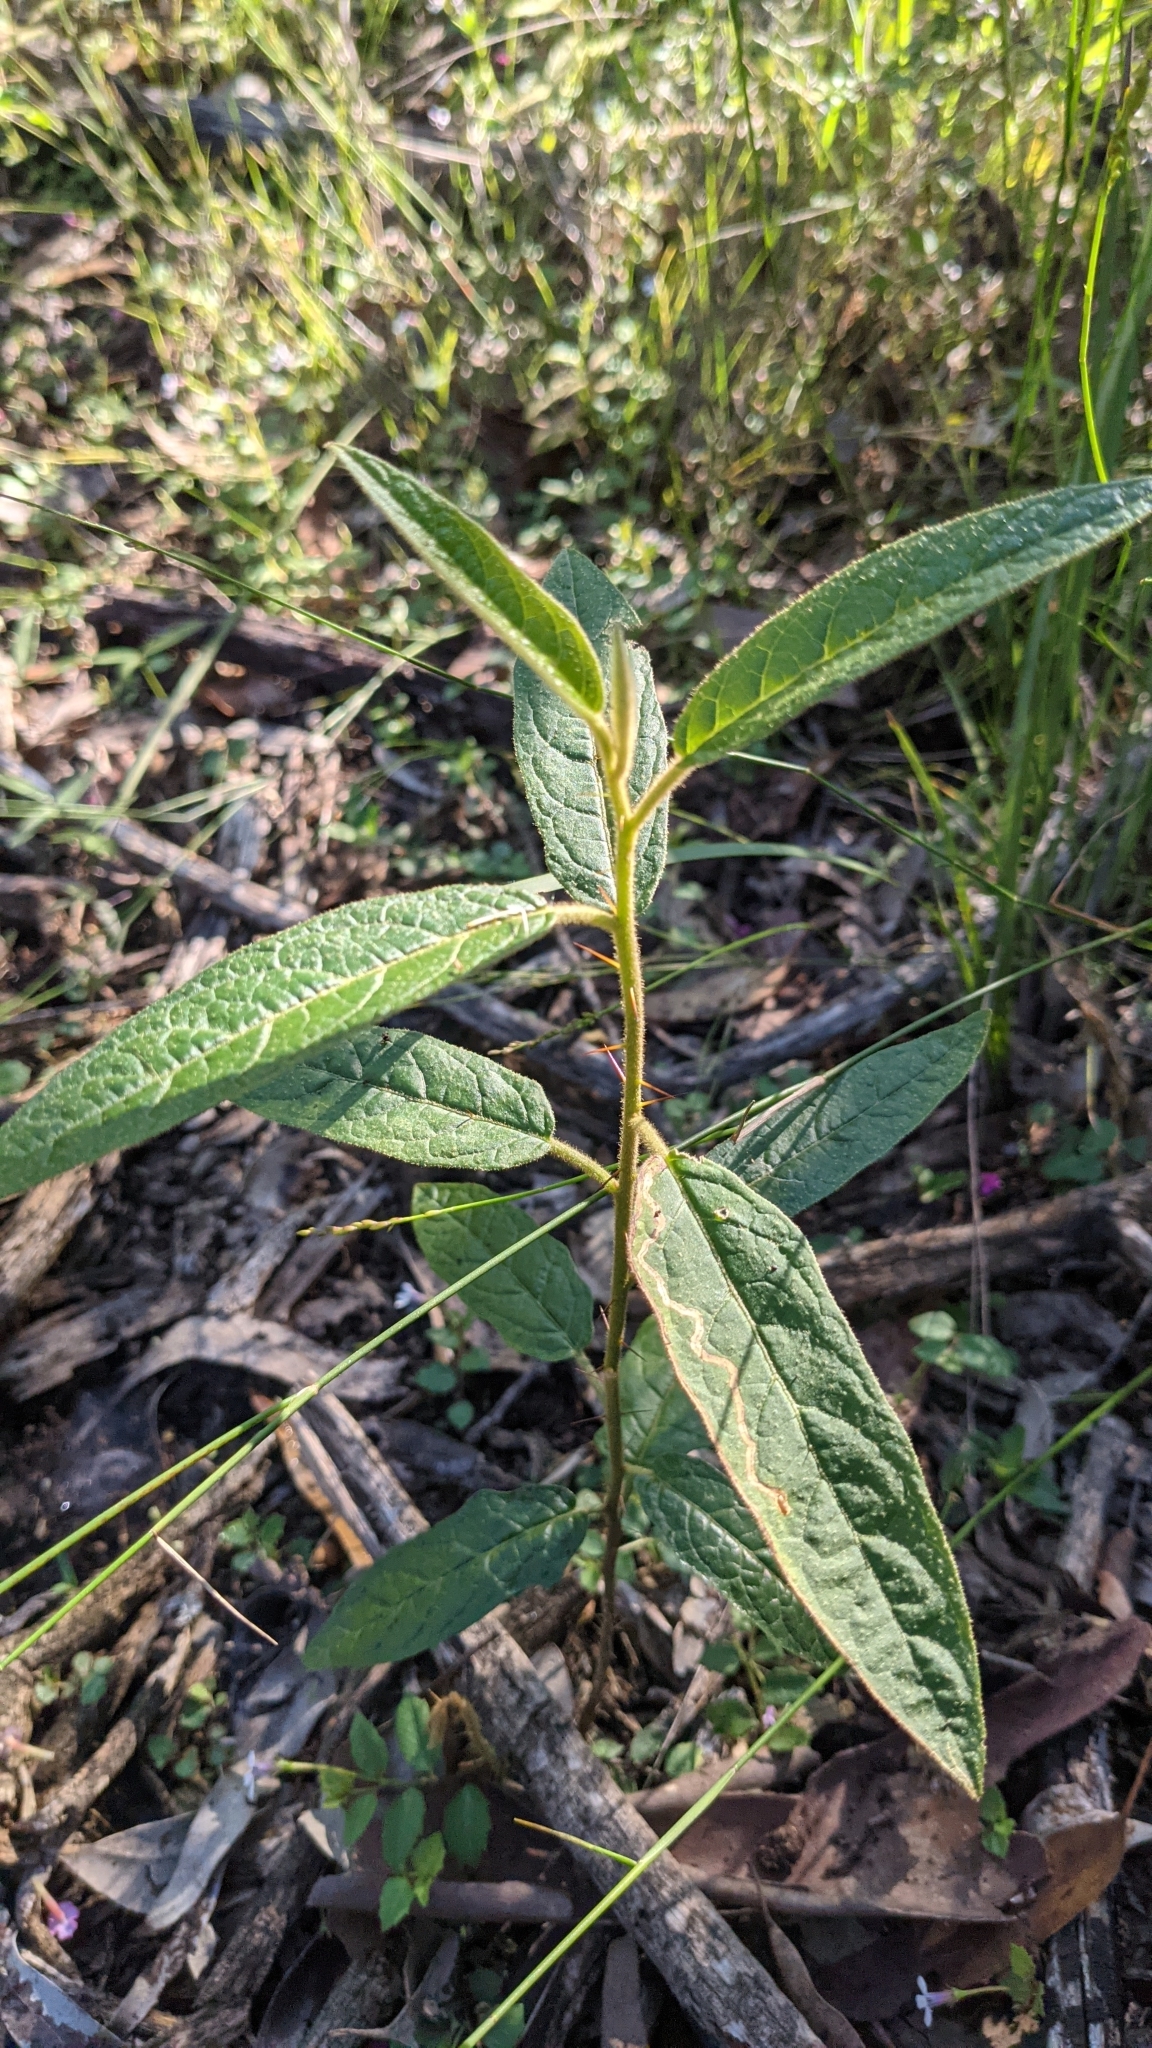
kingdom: Plantae
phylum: Tracheophyta
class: Magnoliopsida
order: Solanales
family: Solanaceae
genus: Solanum
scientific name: Solanum stelligerum
